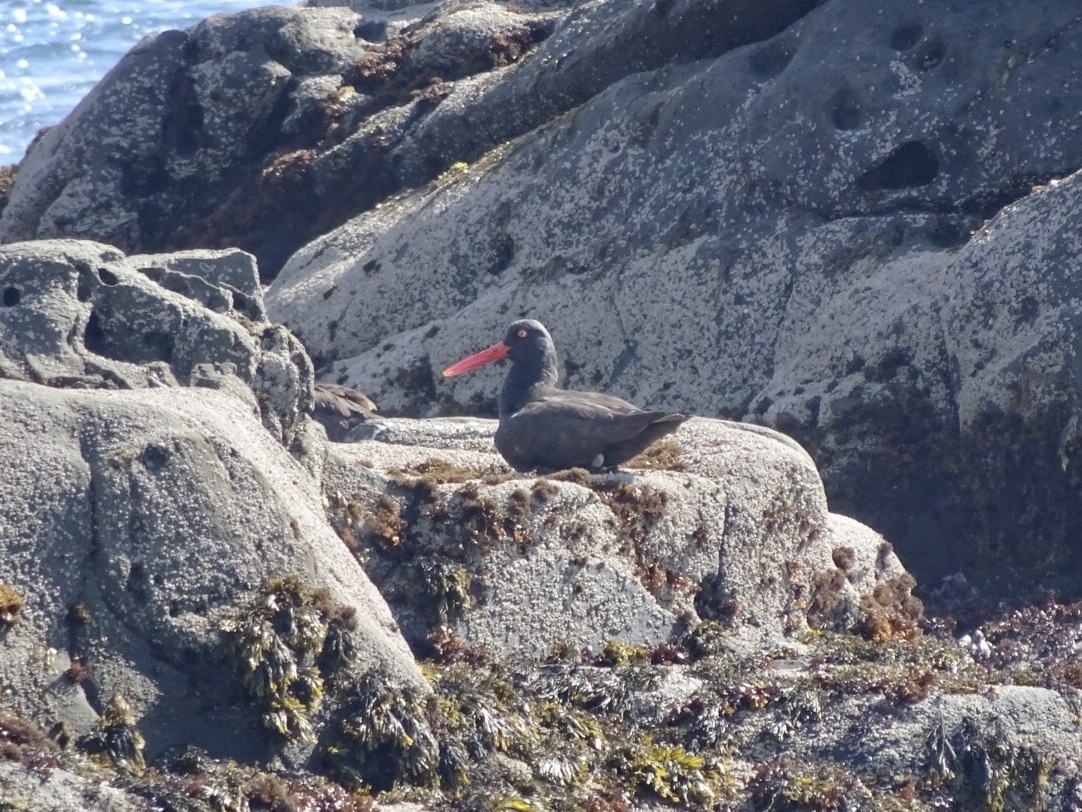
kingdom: Animalia
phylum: Chordata
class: Aves
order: Charadriiformes
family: Haematopodidae
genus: Haematopus
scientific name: Haematopus bachmani
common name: Black oystercatcher
